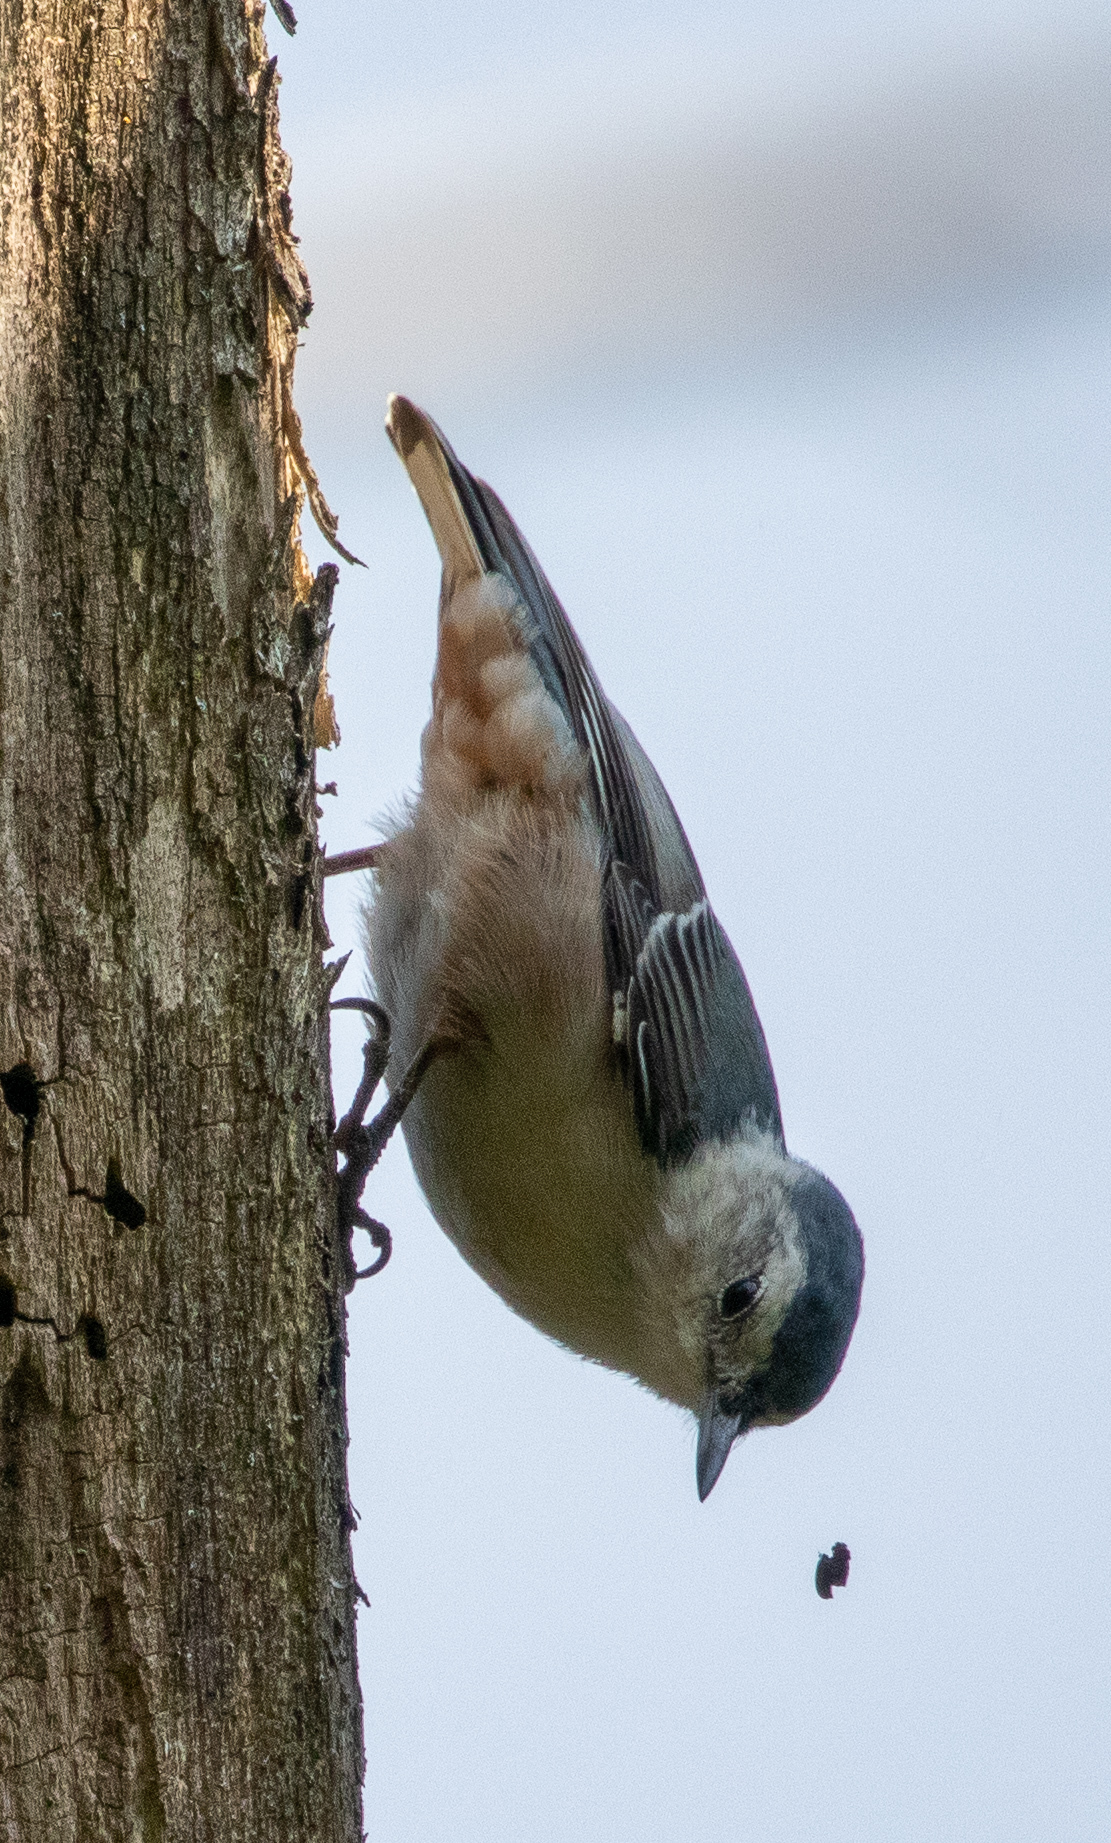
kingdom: Animalia
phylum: Chordata
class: Aves
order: Passeriformes
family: Sittidae
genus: Sitta
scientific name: Sitta carolinensis
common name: White-breasted nuthatch
